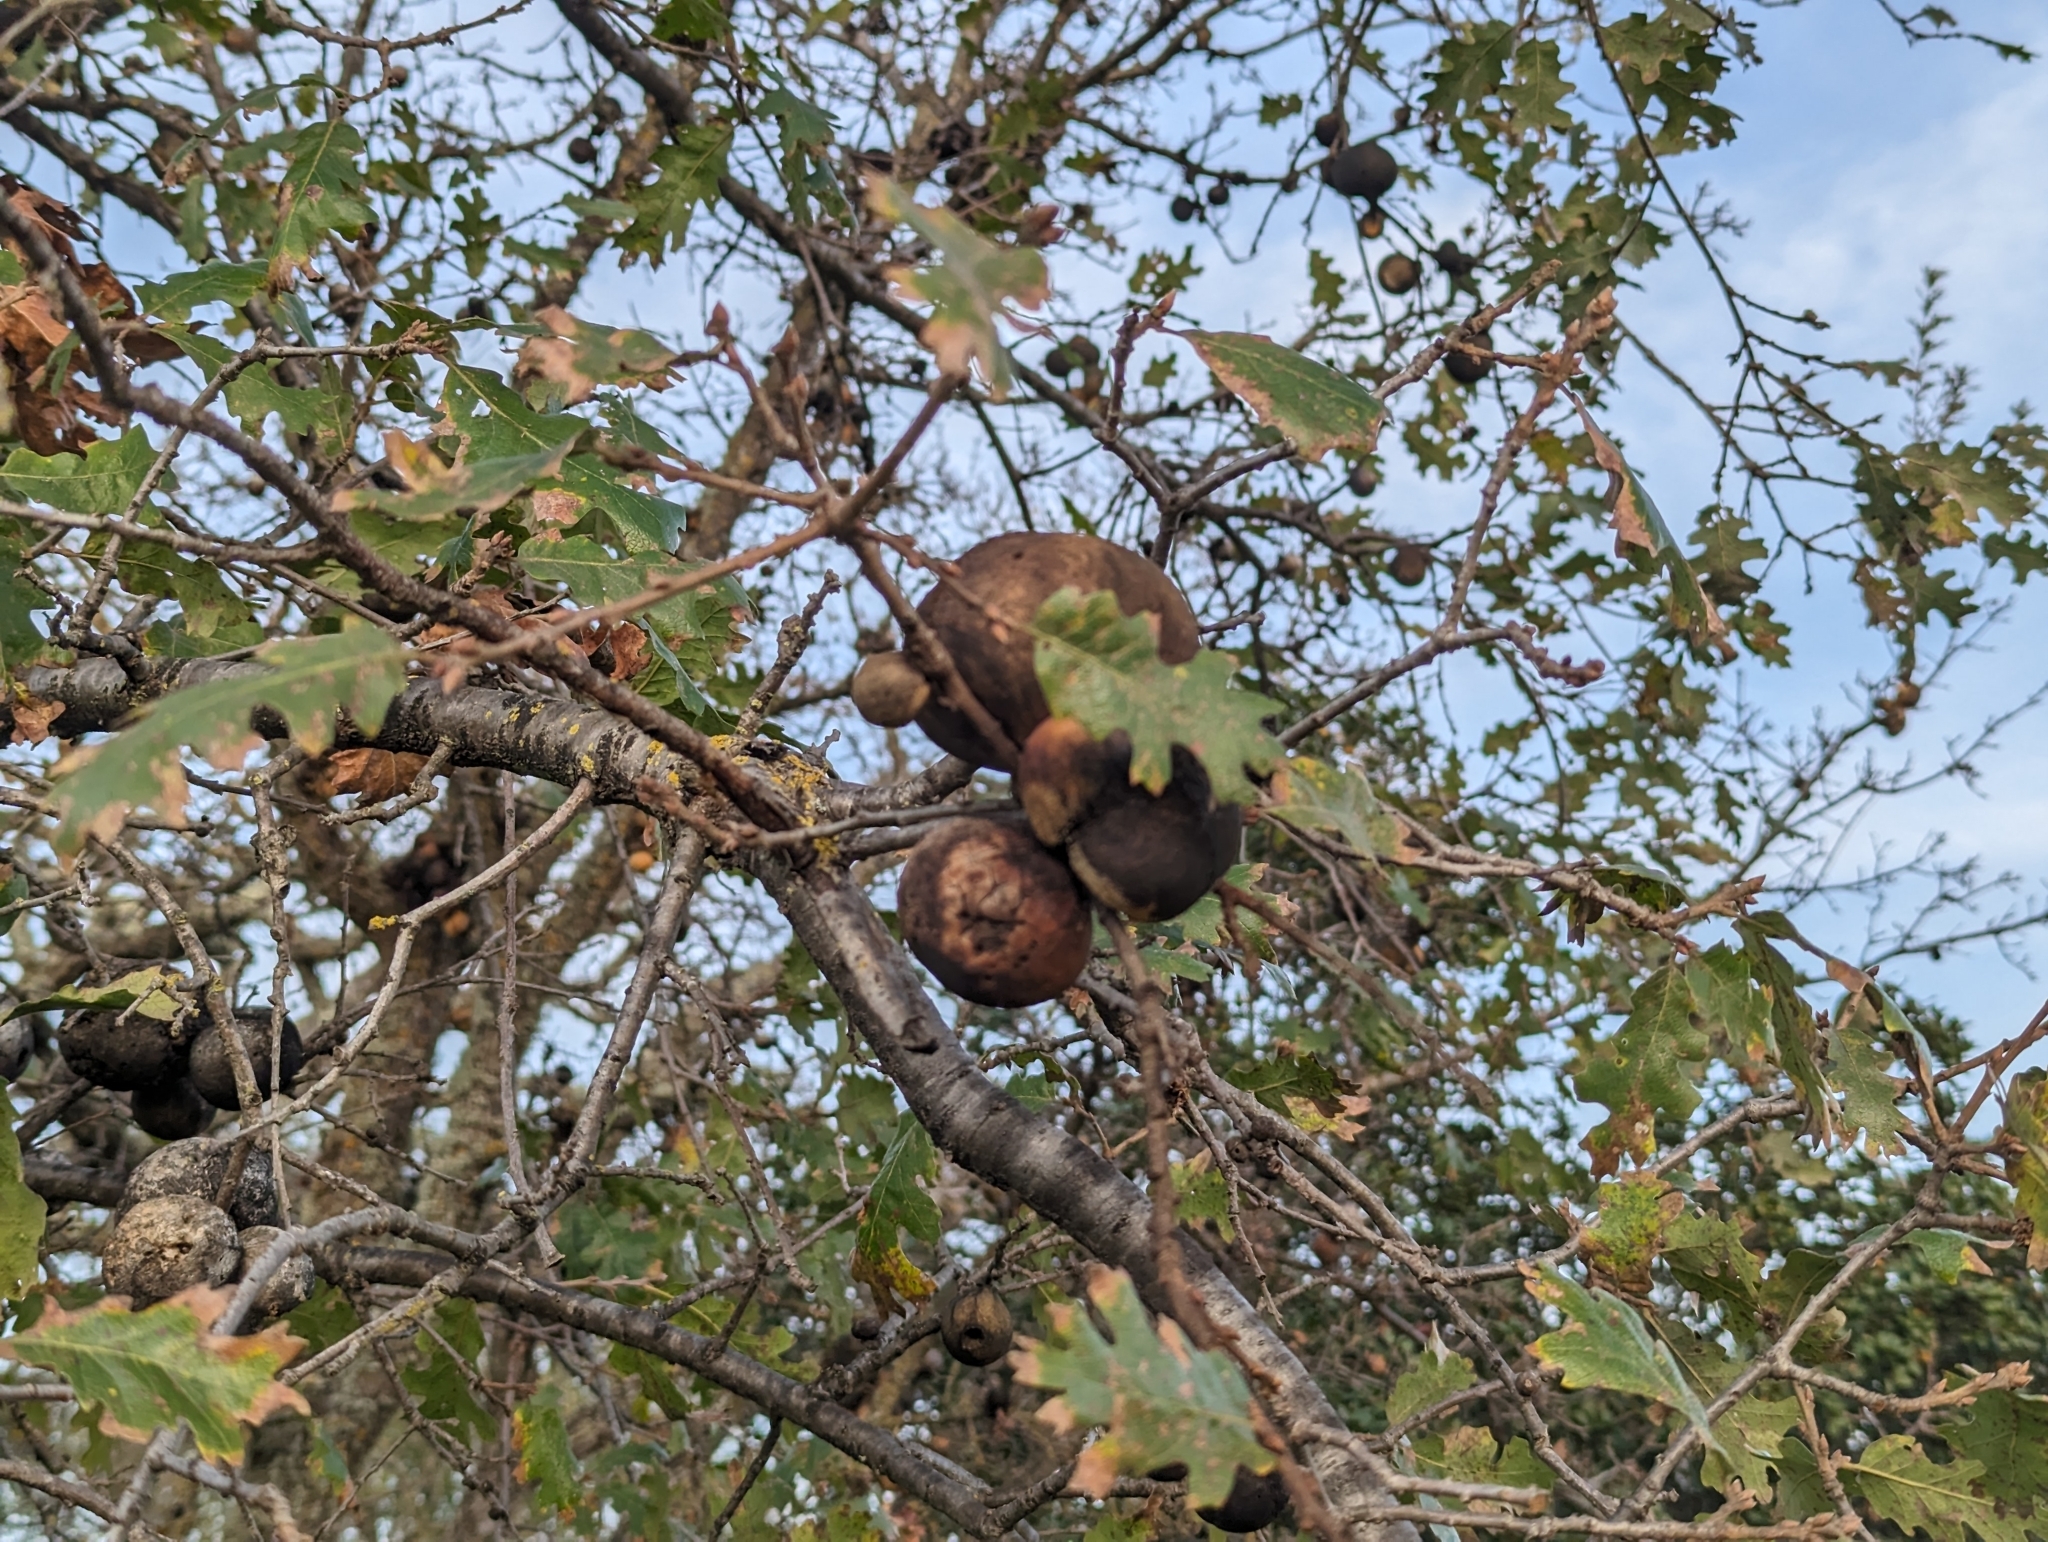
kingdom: Plantae
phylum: Tracheophyta
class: Magnoliopsida
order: Fagales
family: Fagaceae
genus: Quercus
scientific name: Quercus lobata
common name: Valley oak
